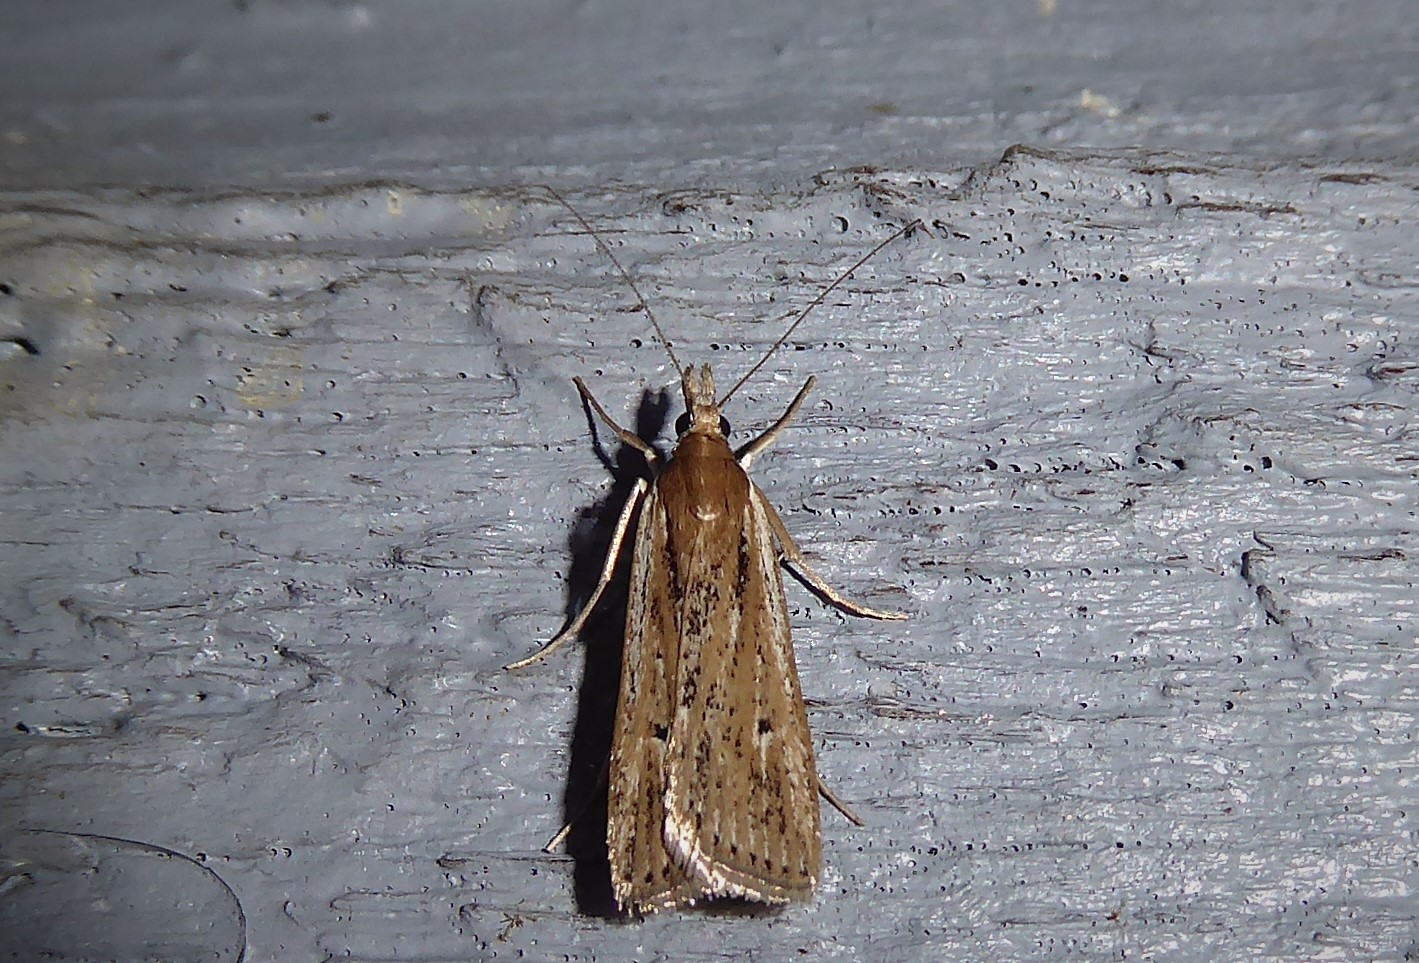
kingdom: Animalia
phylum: Arthropoda
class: Insecta
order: Lepidoptera
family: Crambidae
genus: Eudonia
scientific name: Eudonia sabulosella
